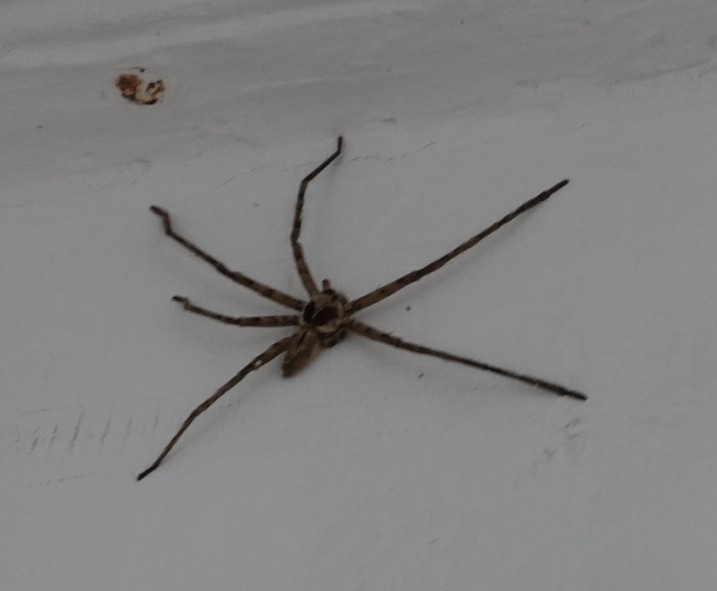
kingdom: Animalia
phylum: Arthropoda
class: Arachnida
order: Araneae
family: Sparassidae
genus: Heteropoda
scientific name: Heteropoda venatoria
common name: Huntsman spider
